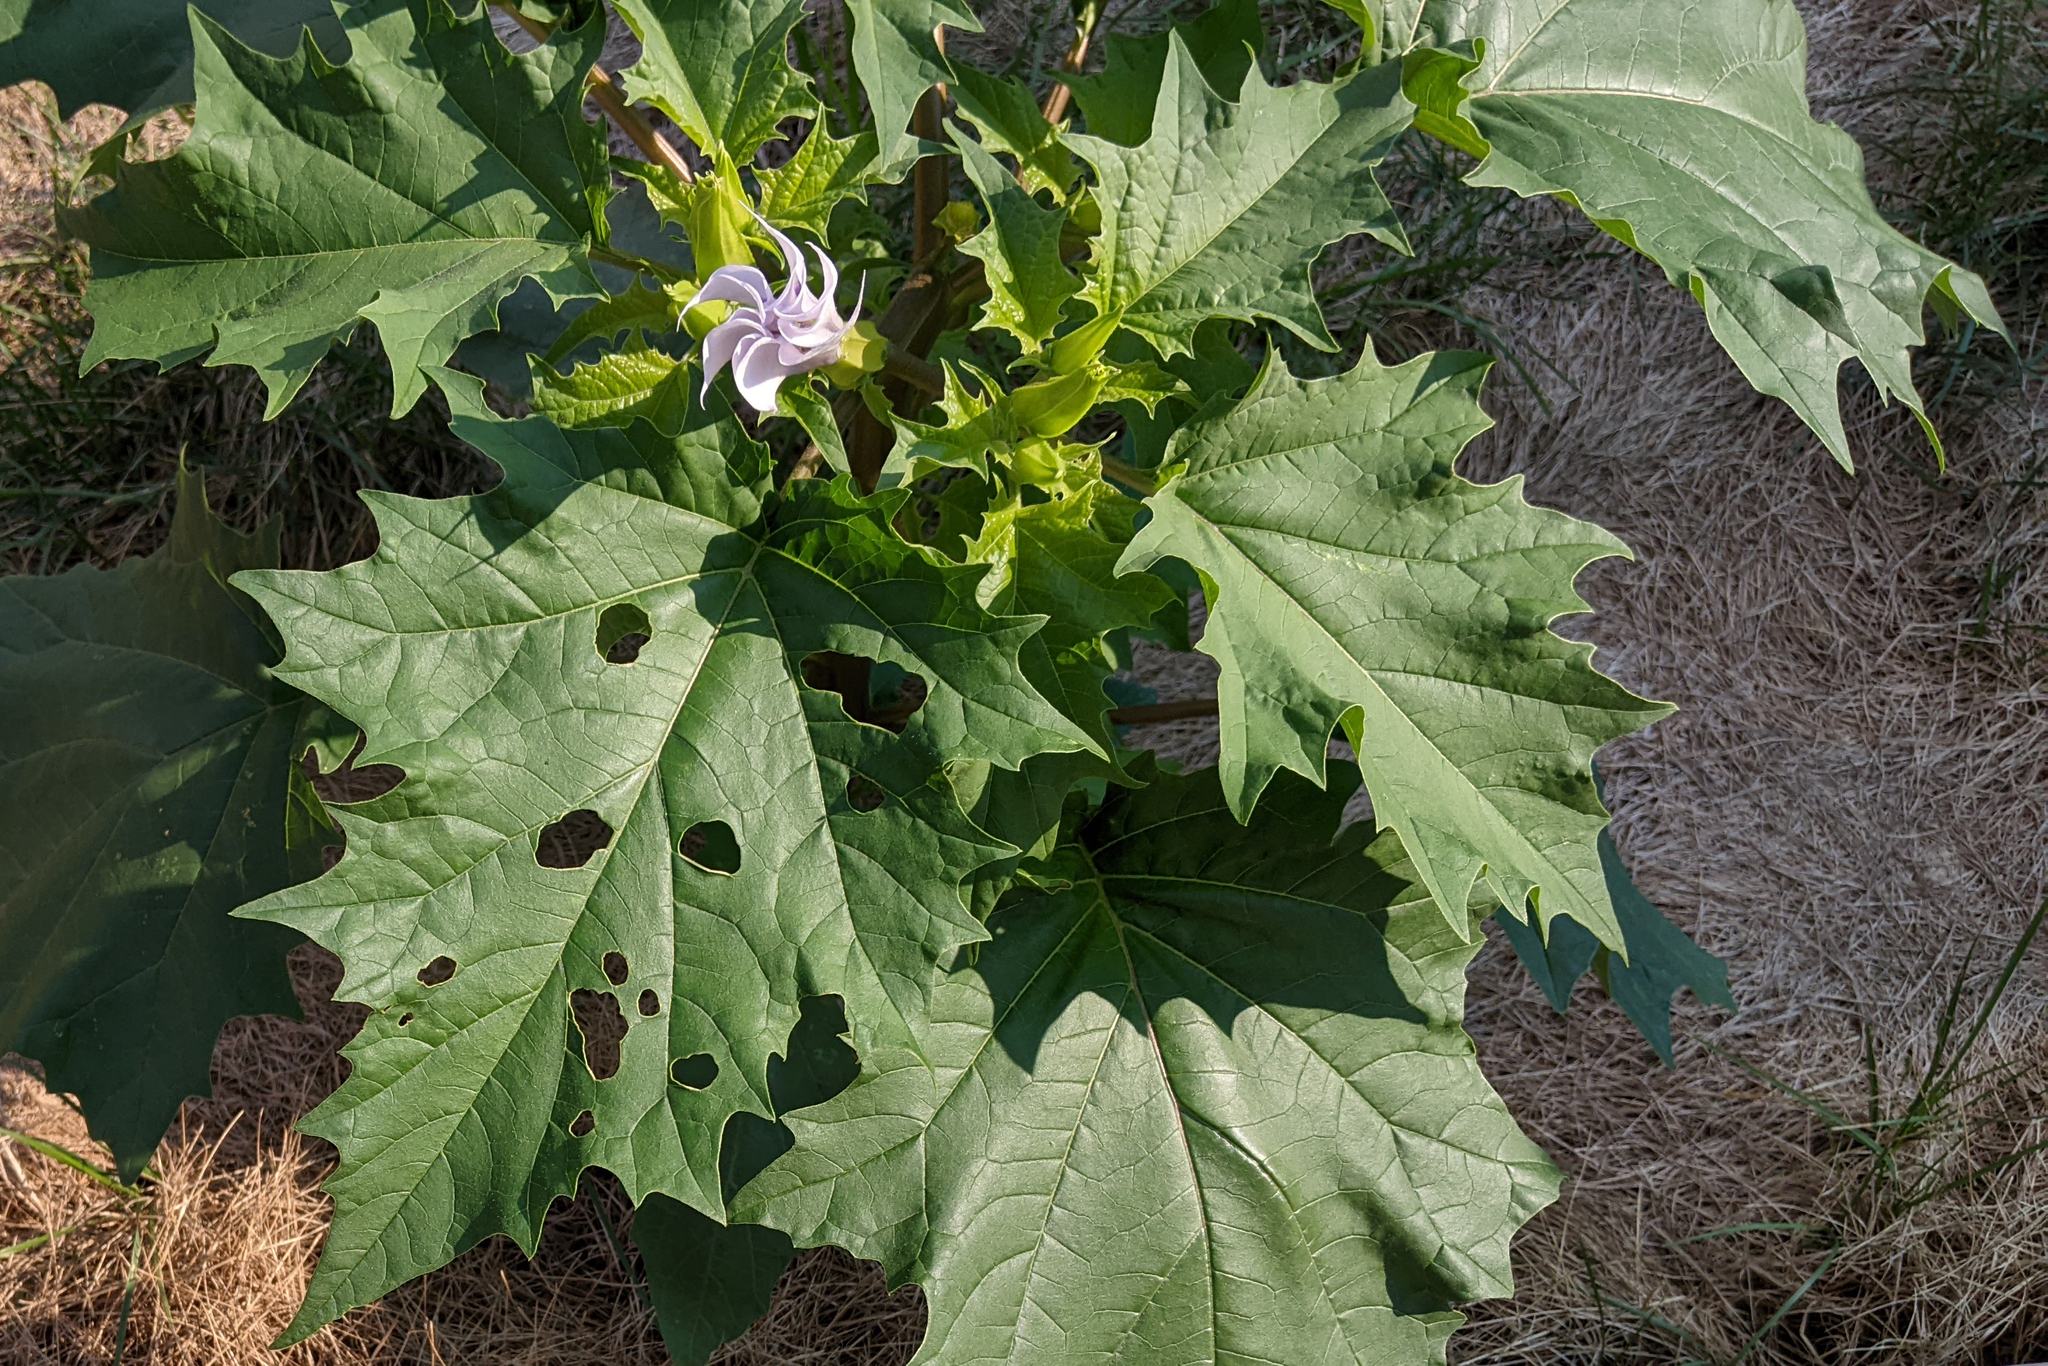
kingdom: Plantae
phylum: Tracheophyta
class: Magnoliopsida
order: Solanales
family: Solanaceae
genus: Datura
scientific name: Datura stramonium
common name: Thorn-apple
